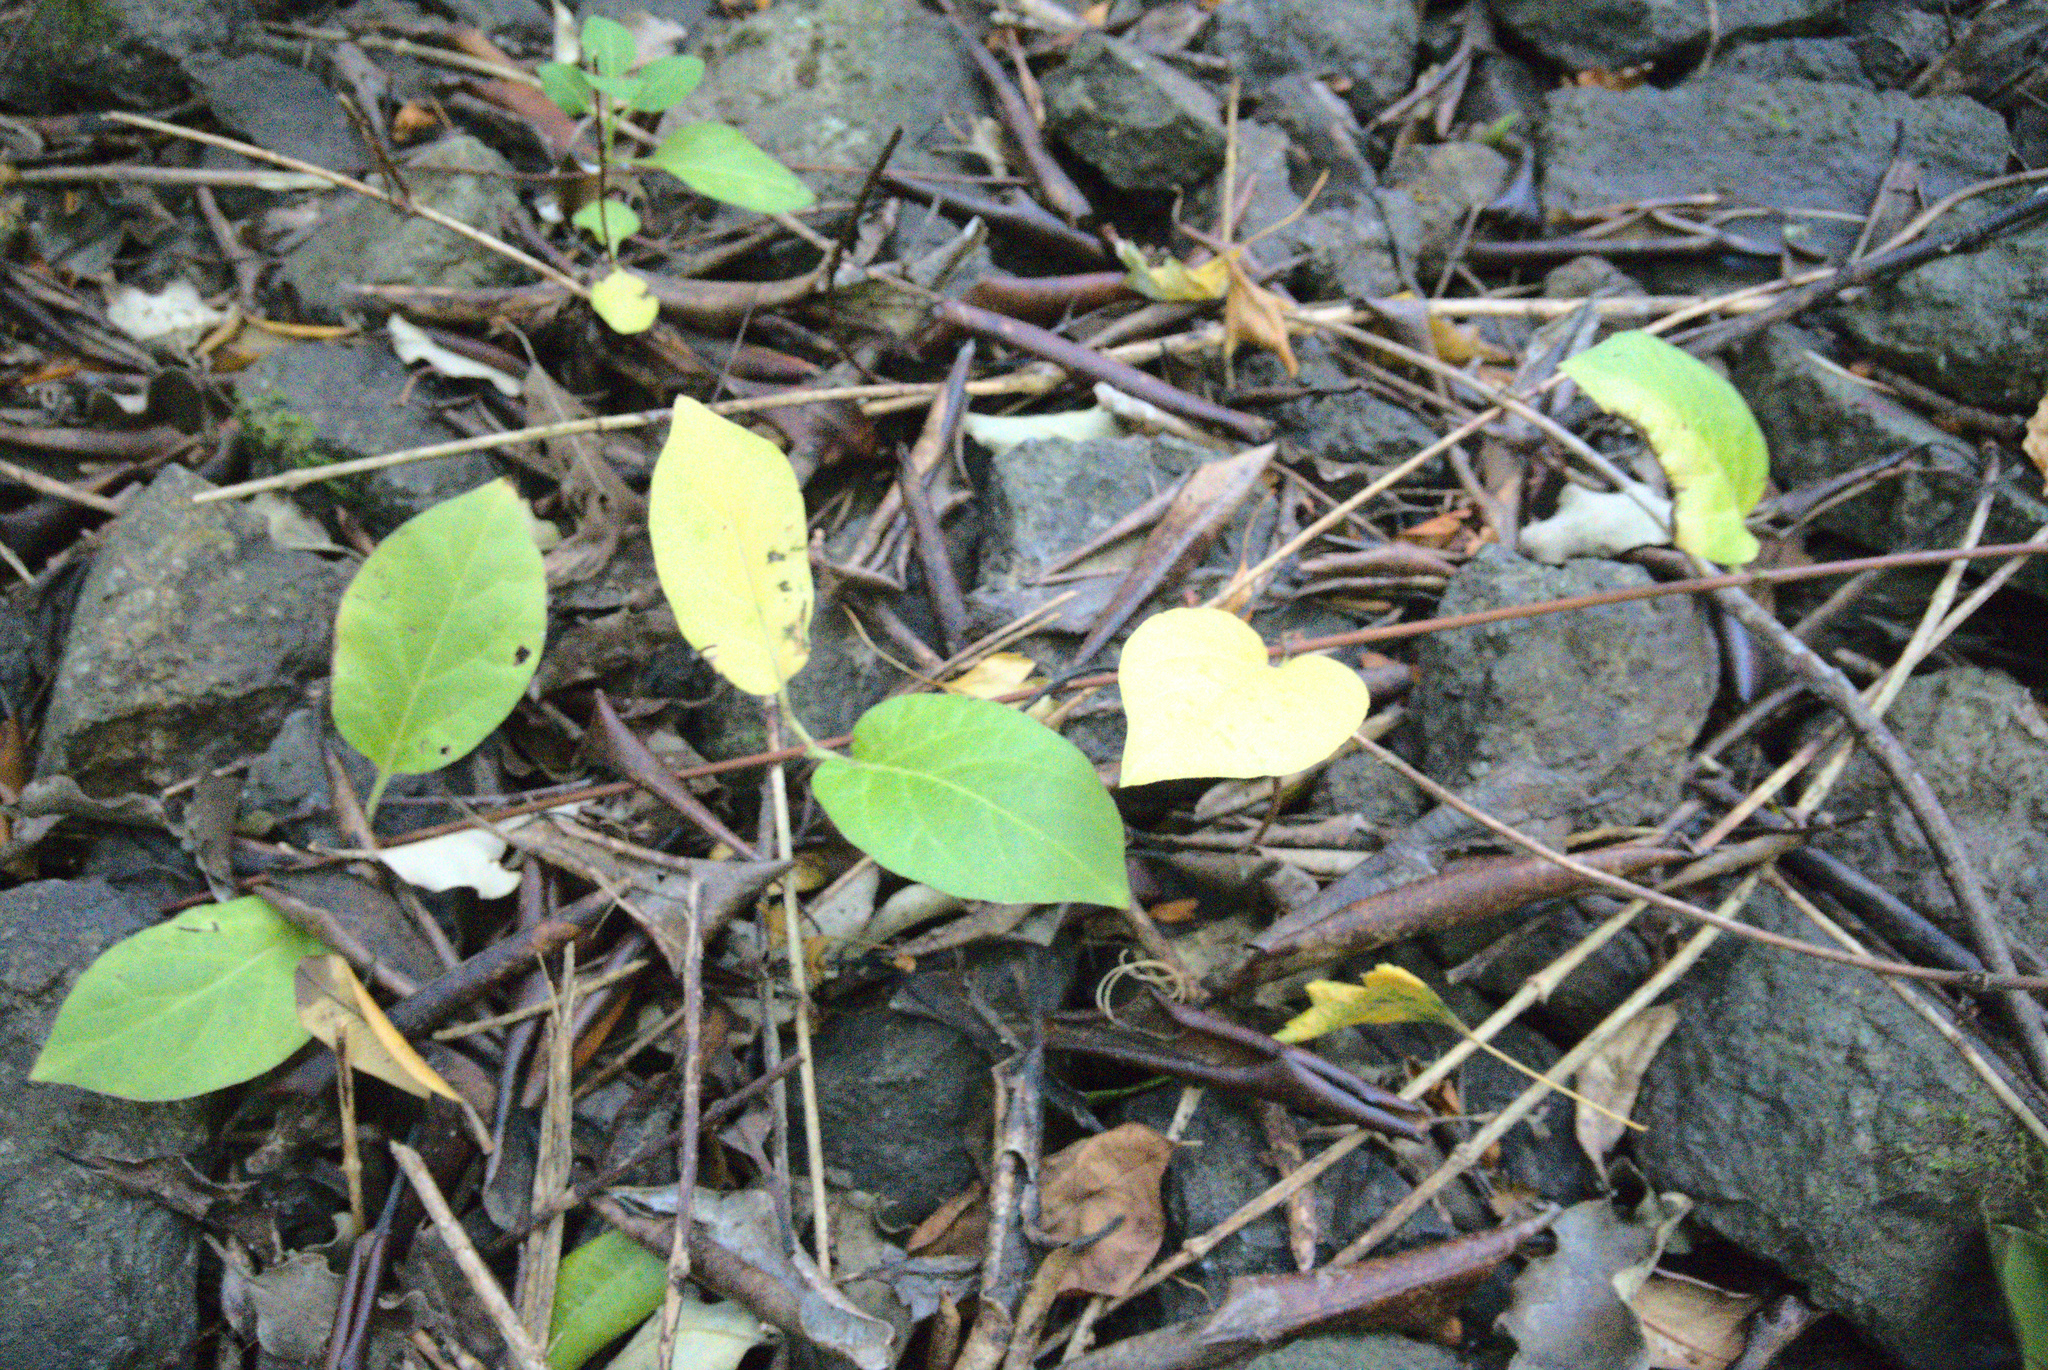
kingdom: Plantae
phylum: Tracheophyta
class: Magnoliopsida
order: Dipsacales
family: Caprifoliaceae
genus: Lonicera
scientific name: Lonicera japonica
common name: Japanese honeysuckle
